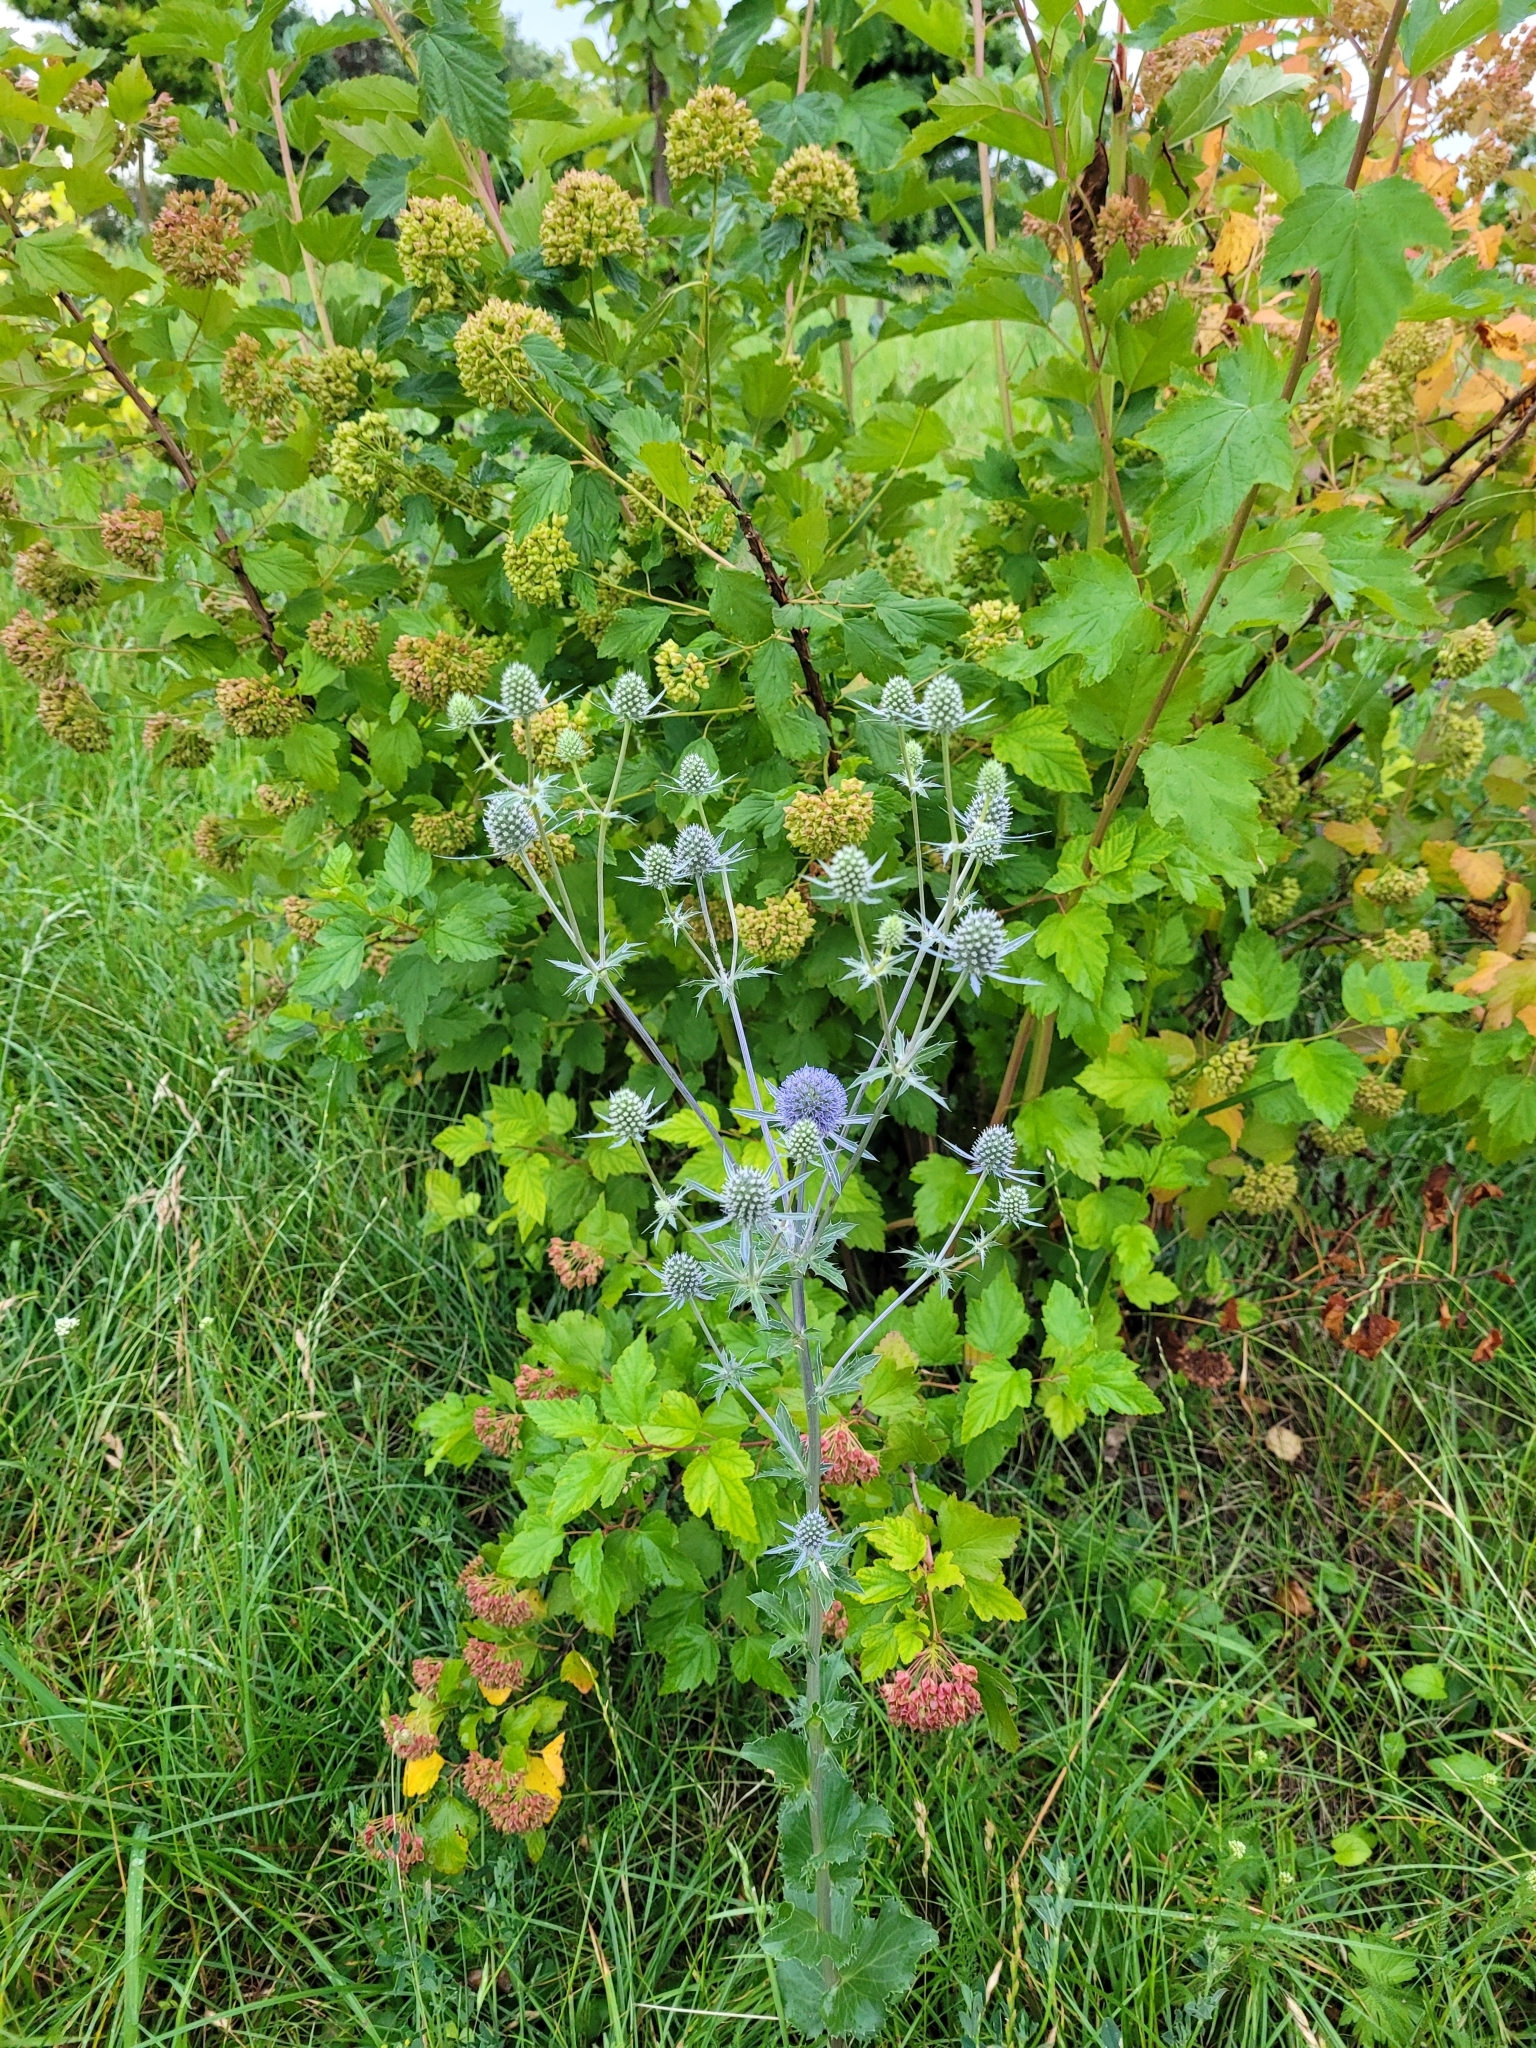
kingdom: Plantae
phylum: Tracheophyta
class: Magnoliopsida
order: Apiales
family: Apiaceae
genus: Eryngium
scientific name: Eryngium planum
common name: Blue eryngo
